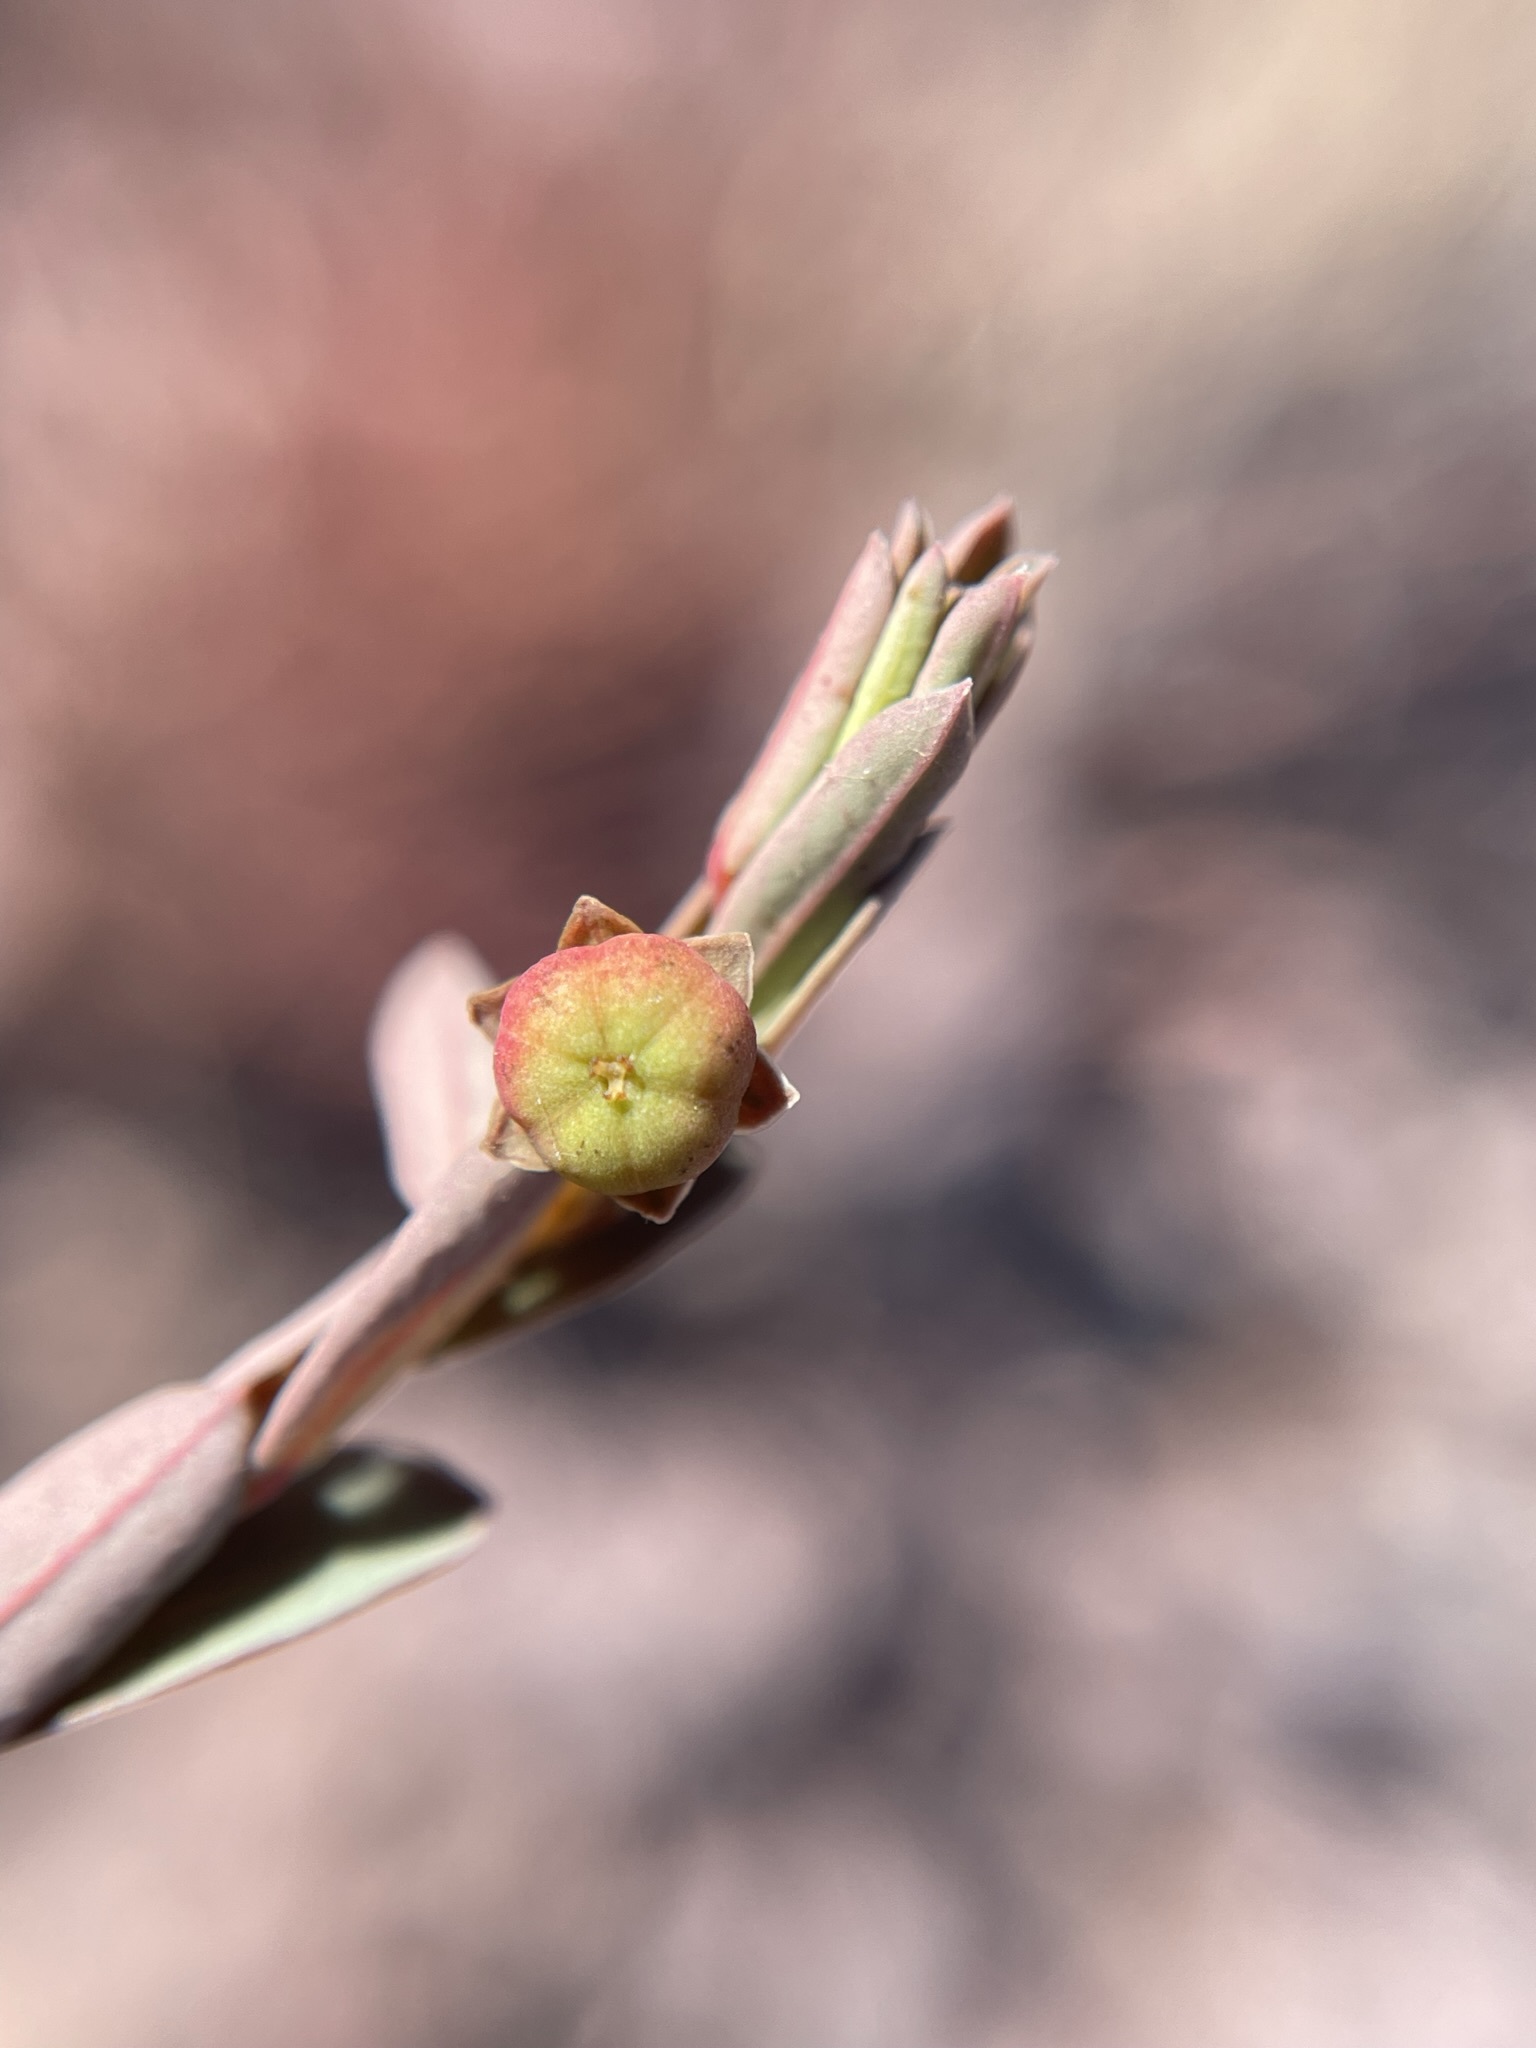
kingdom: Plantae
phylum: Tracheophyta
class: Magnoliopsida
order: Malpighiales
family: Phyllanthaceae
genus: Phyllanthus
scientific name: Phyllanthus polygonoides
